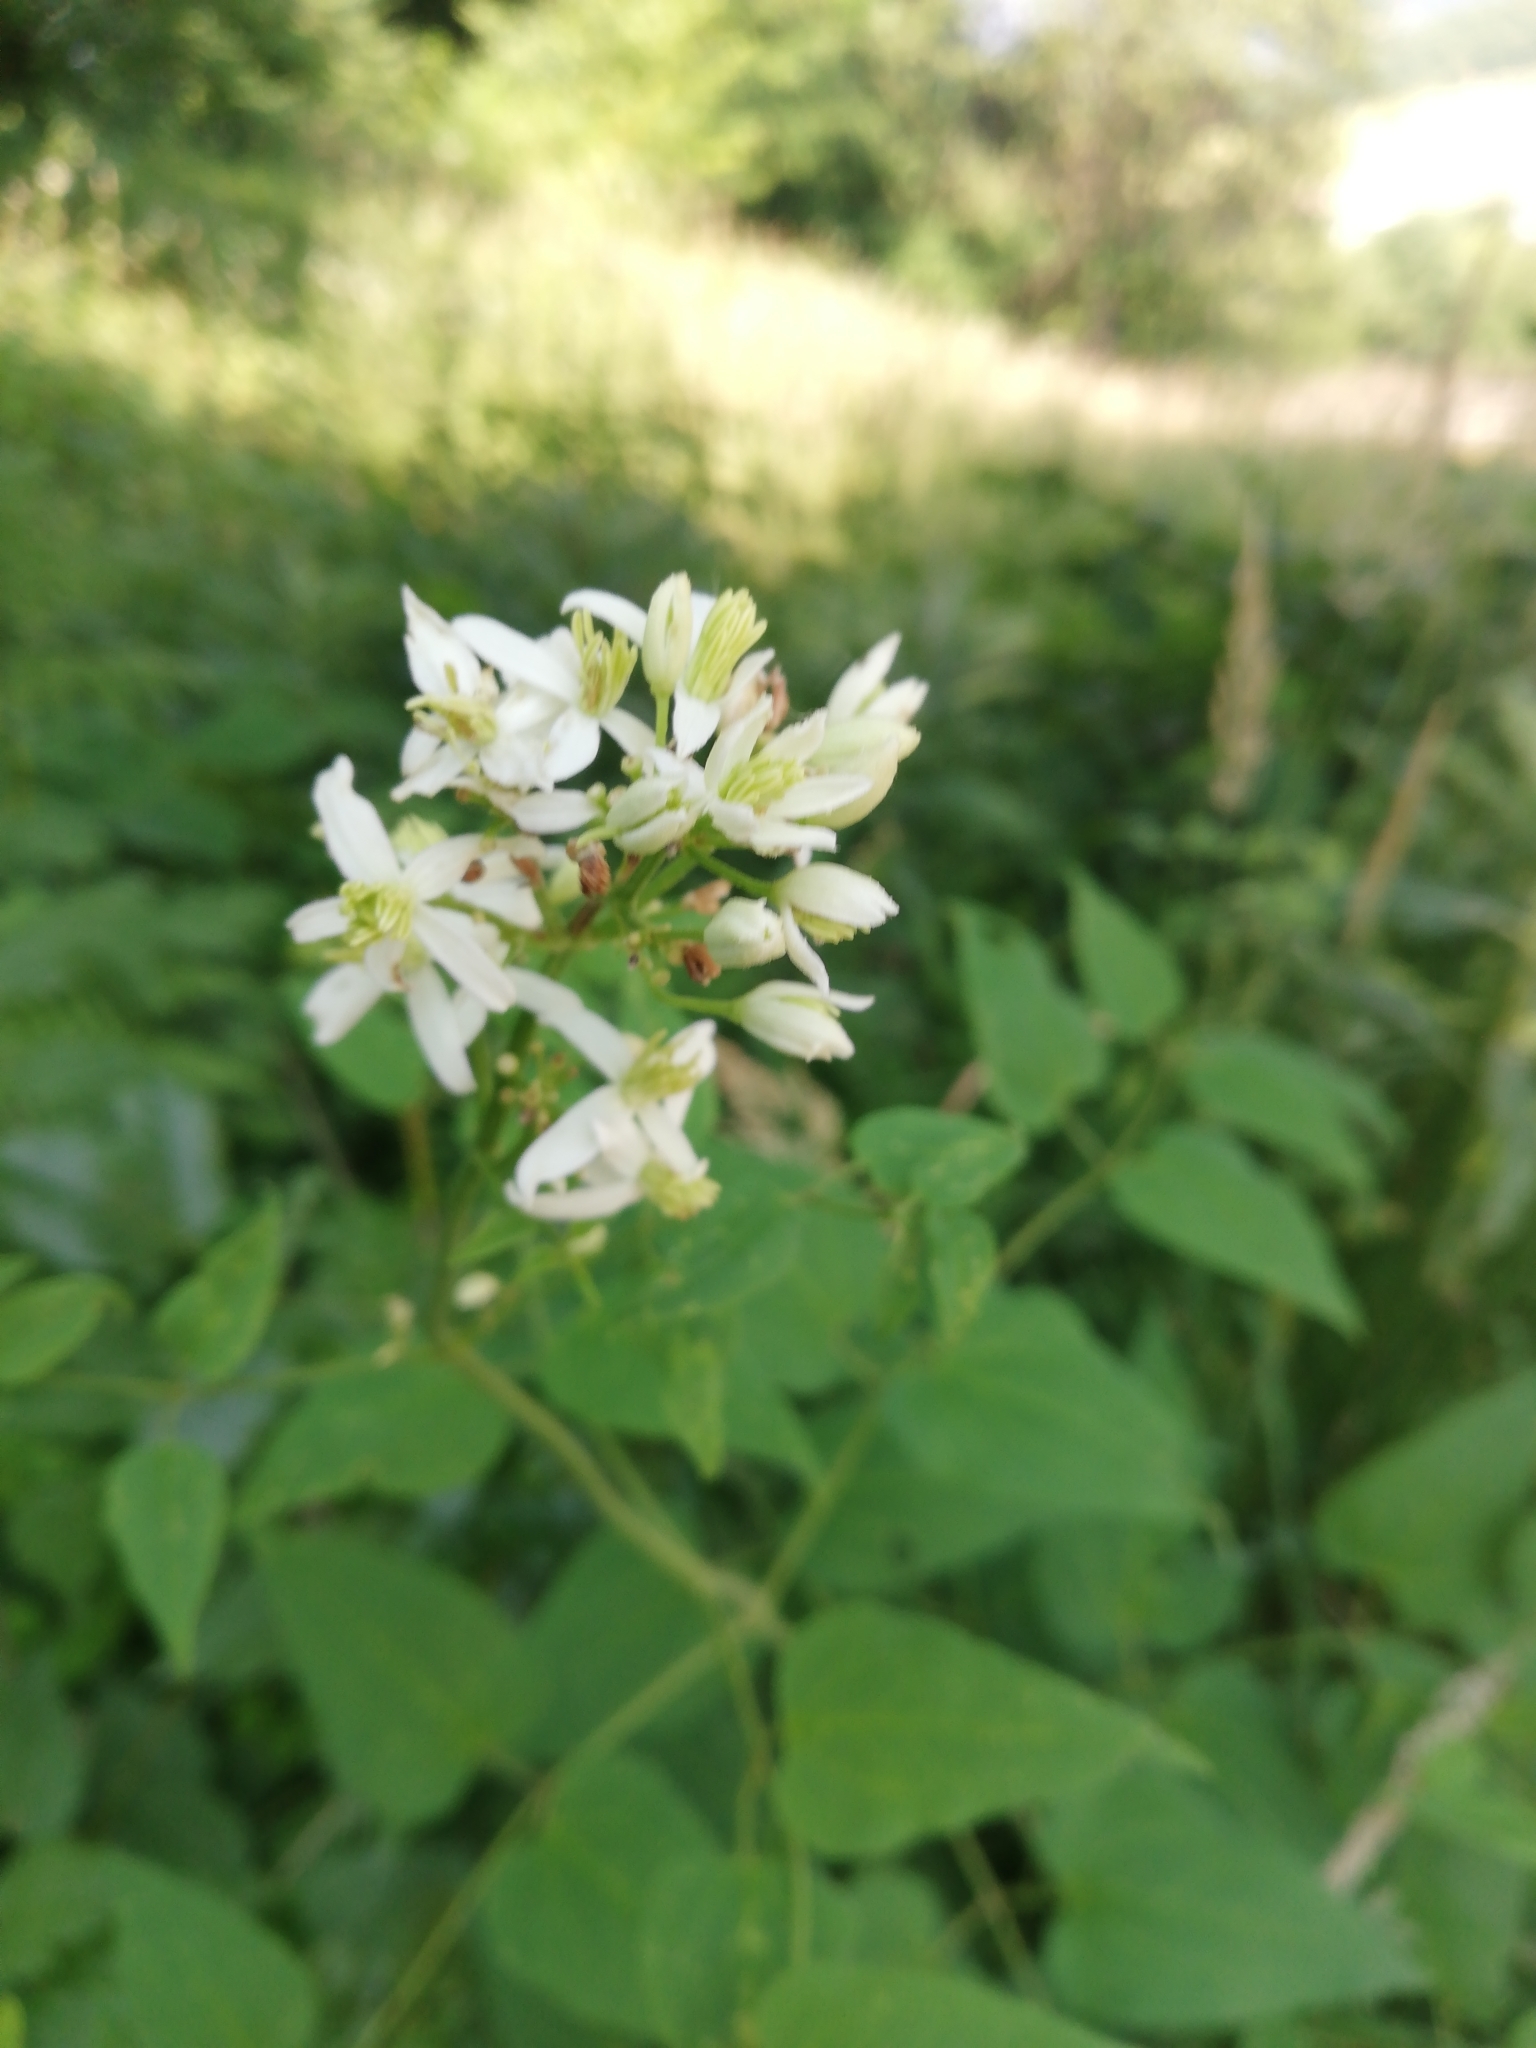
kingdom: Plantae
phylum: Tracheophyta
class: Magnoliopsida
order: Ranunculales
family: Ranunculaceae
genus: Clematis
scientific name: Clematis recta
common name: Ground clematis
